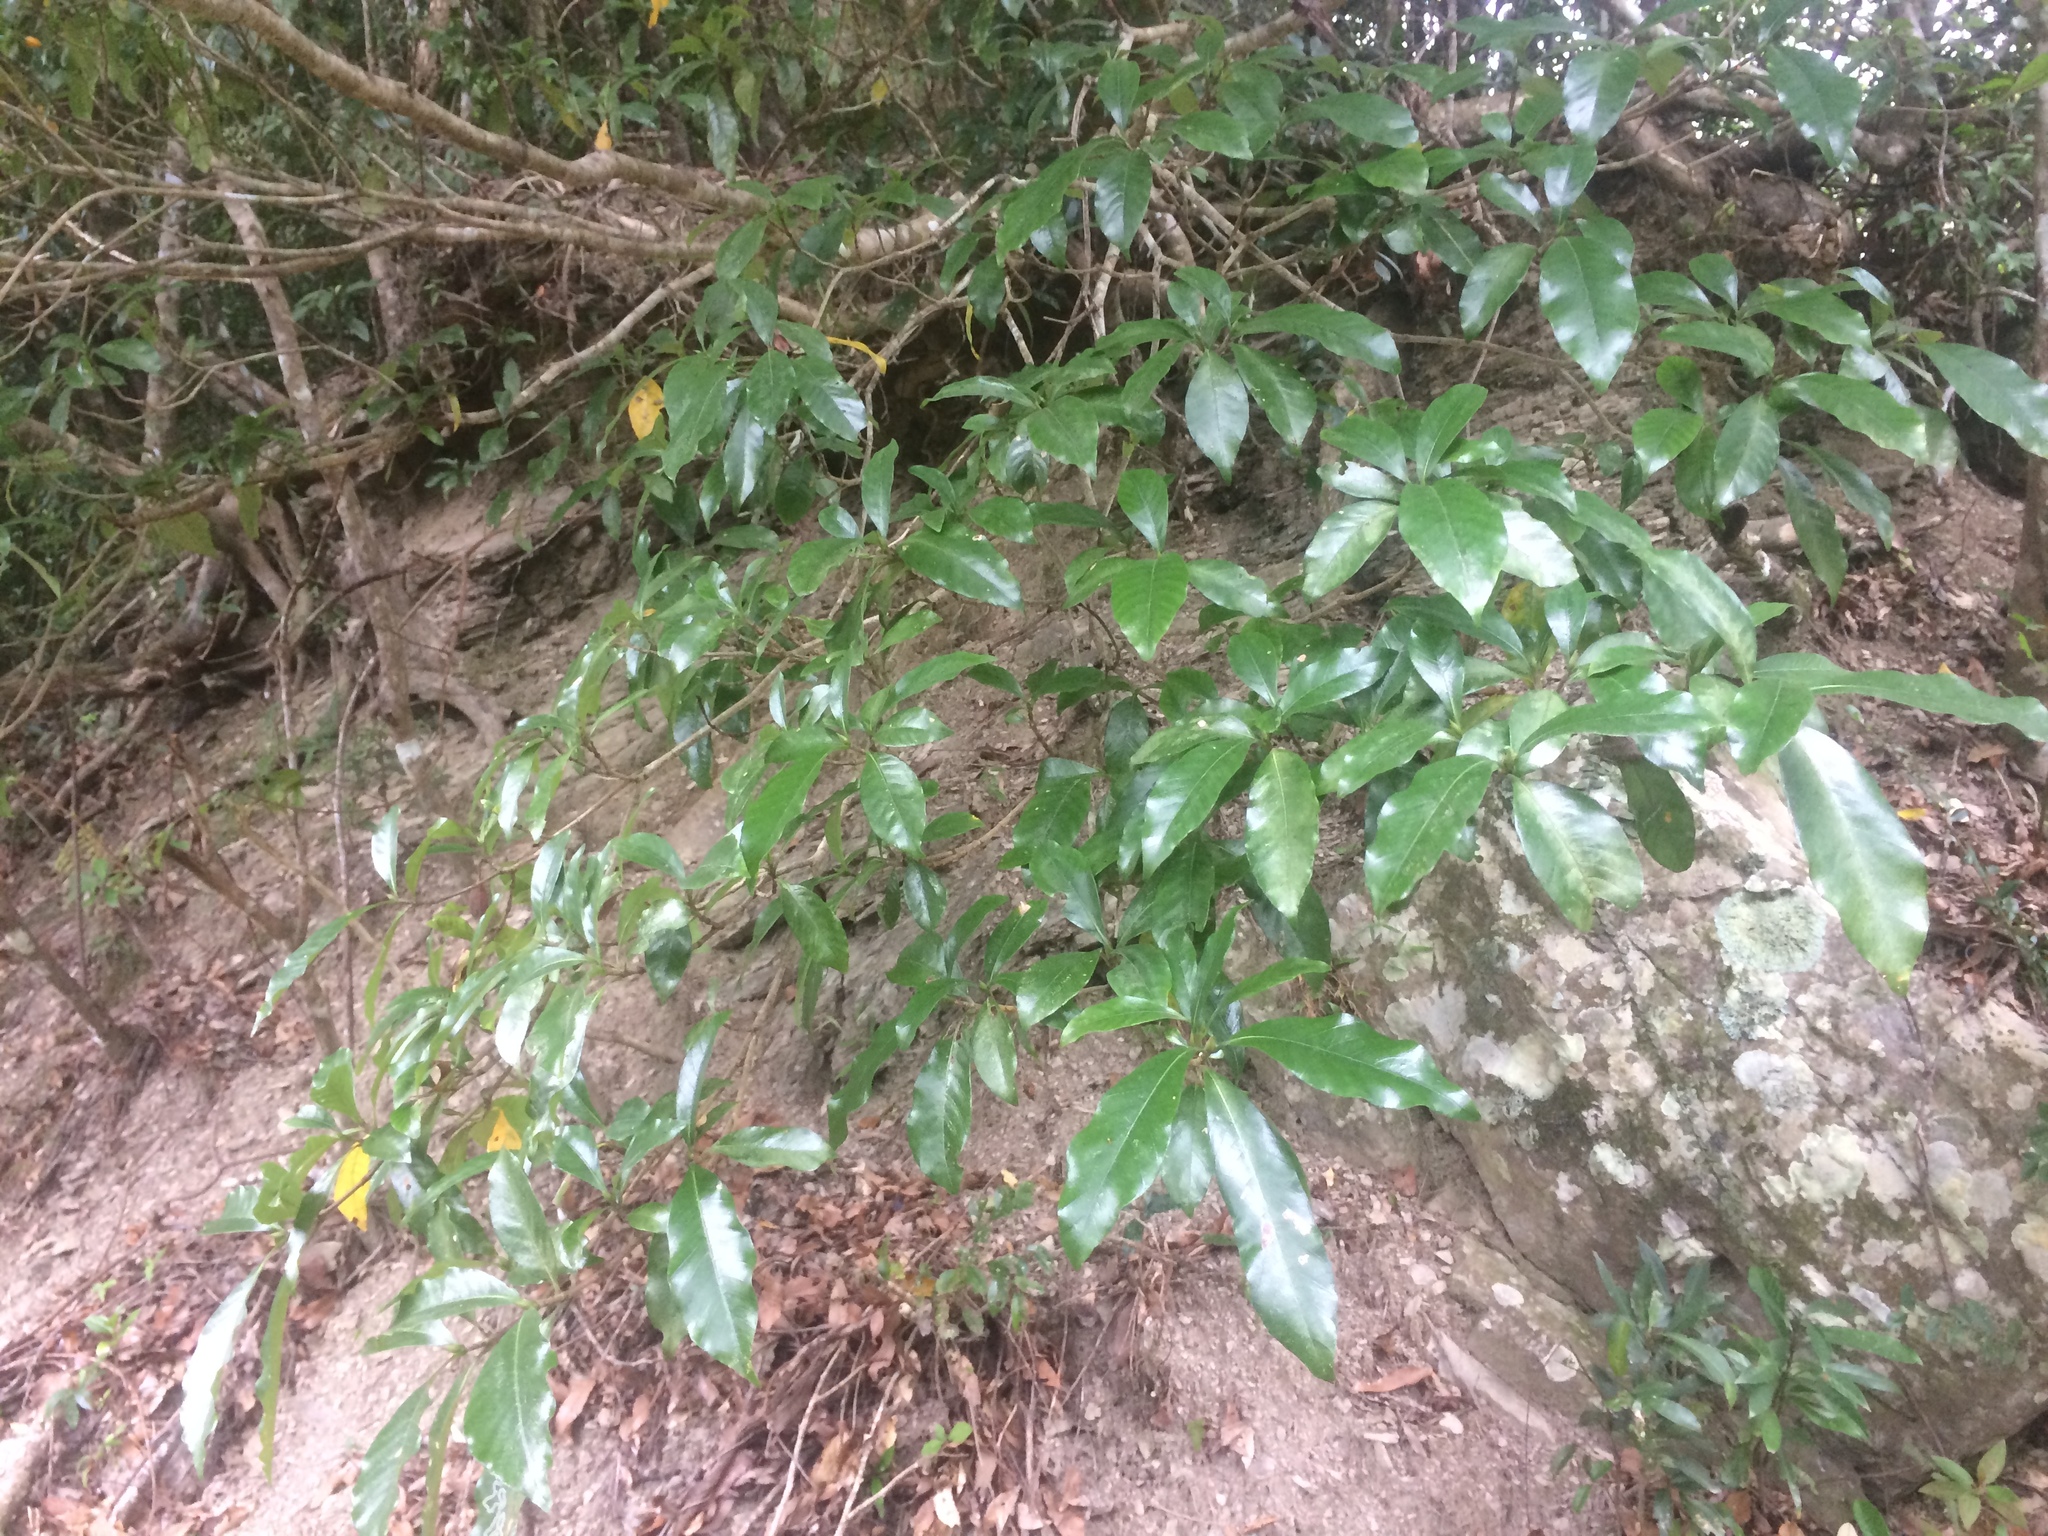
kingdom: Plantae
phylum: Tracheophyta
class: Magnoliopsida
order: Gentianales
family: Rubiaceae
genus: Gardenia
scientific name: Gardenia jasminoides
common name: Cape-jasmine
